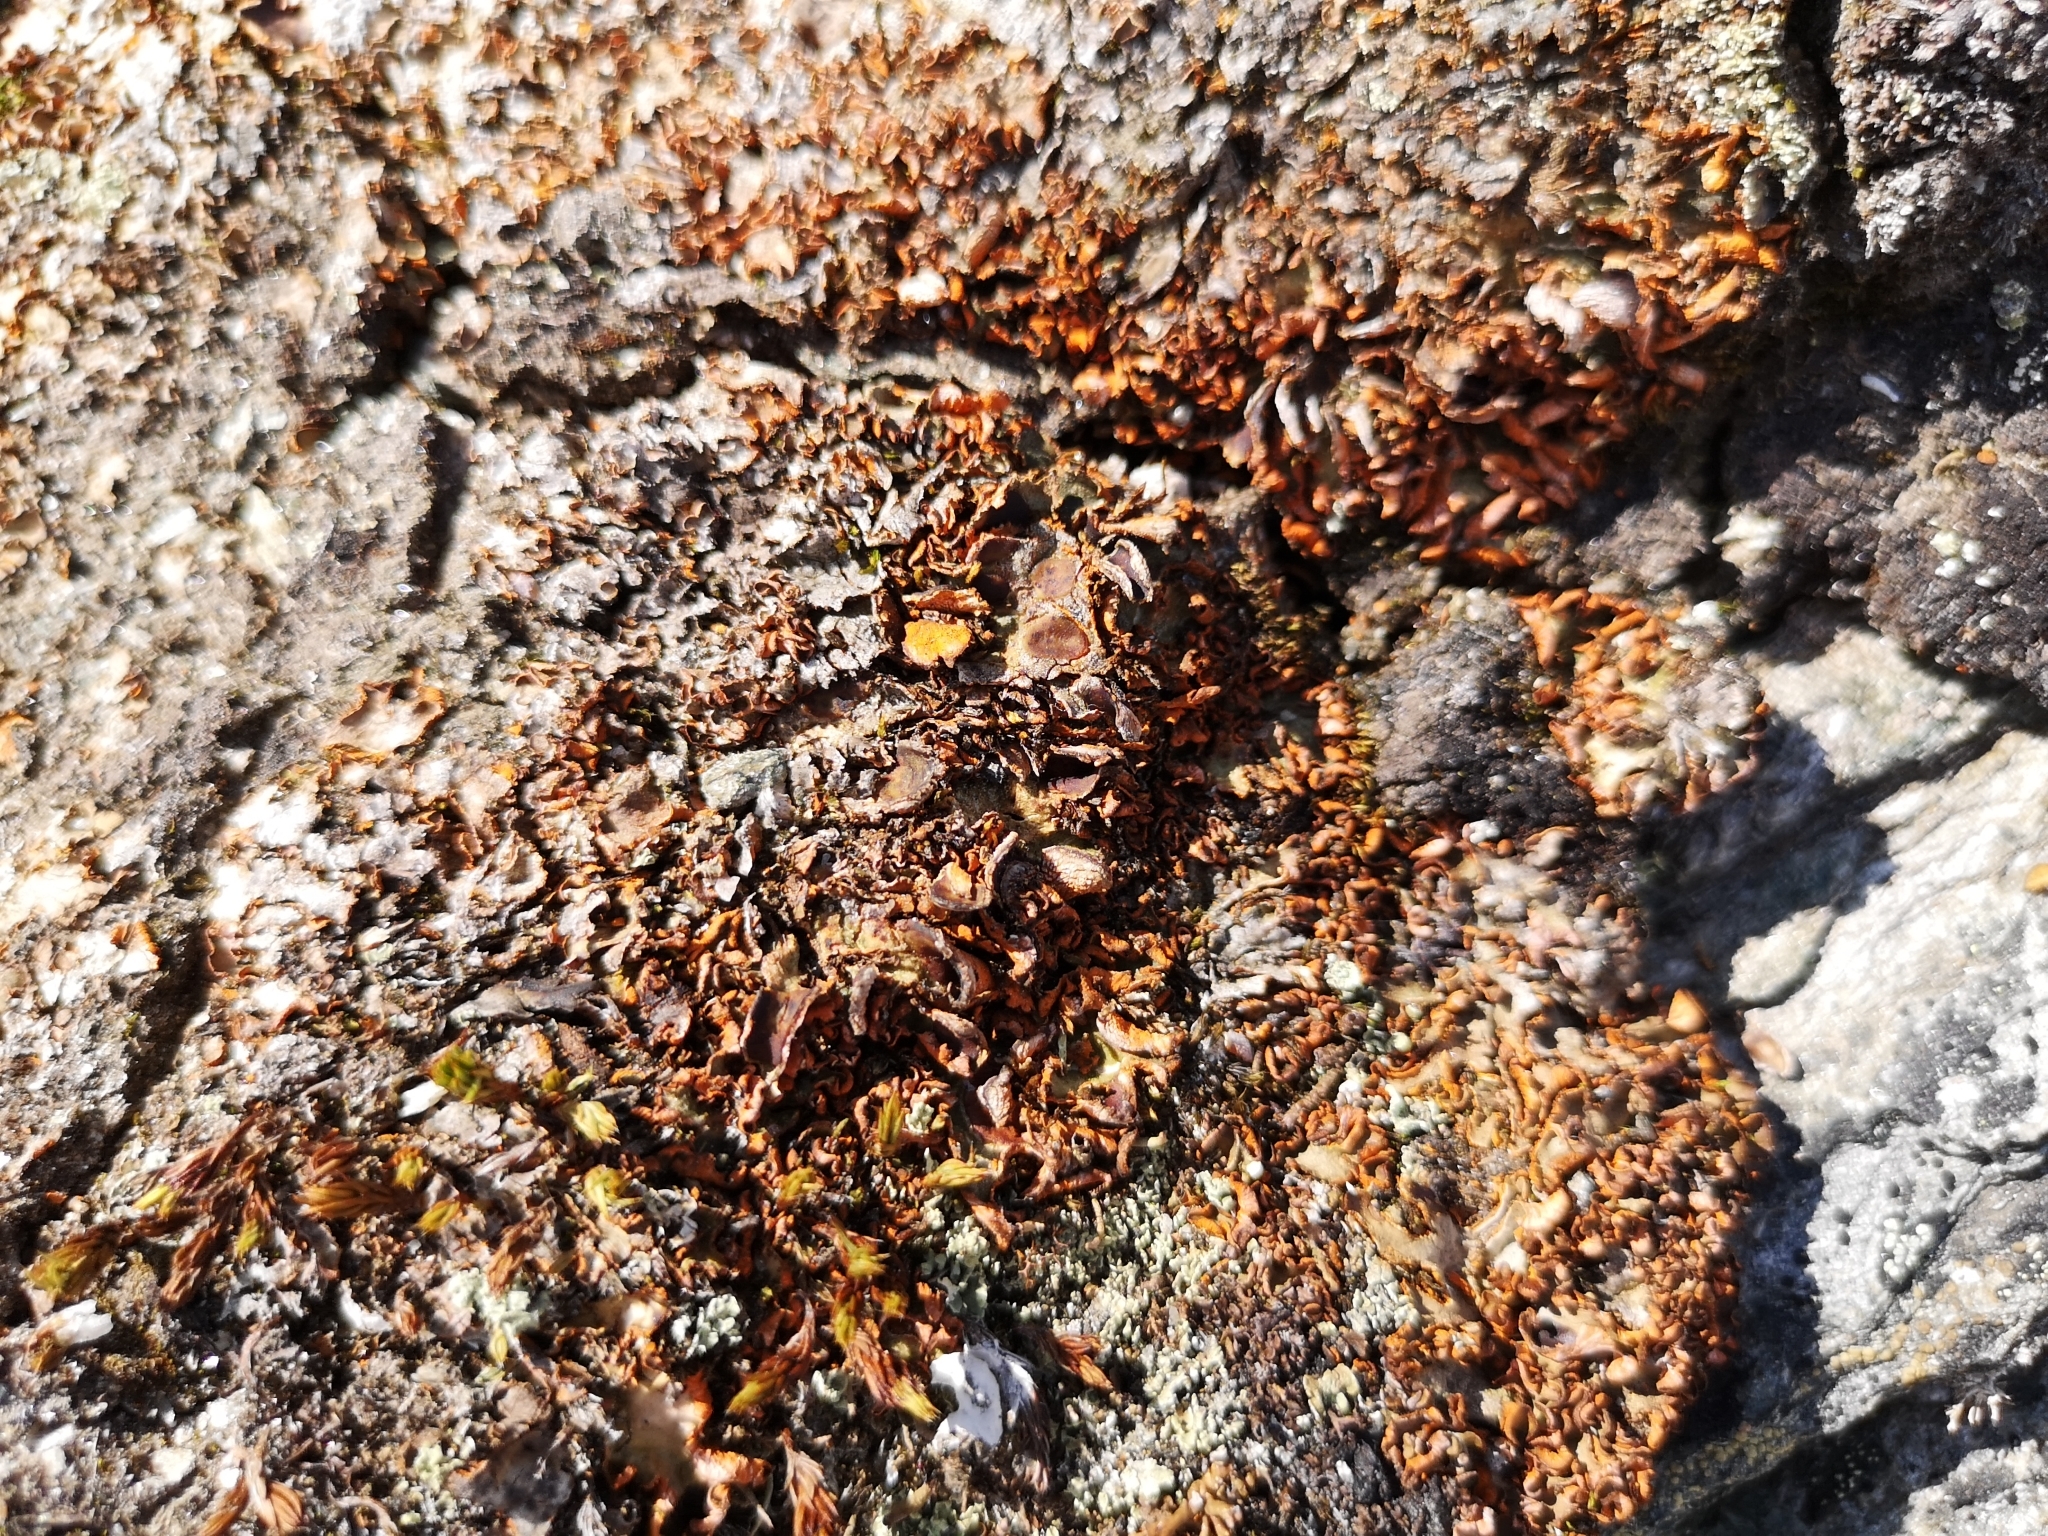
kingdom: Fungi
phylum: Ascomycota
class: Lecanoromycetes
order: Peltigerales
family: Peltigeraceae
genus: Solorina
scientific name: Solorina crocea
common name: Mountain saffron
